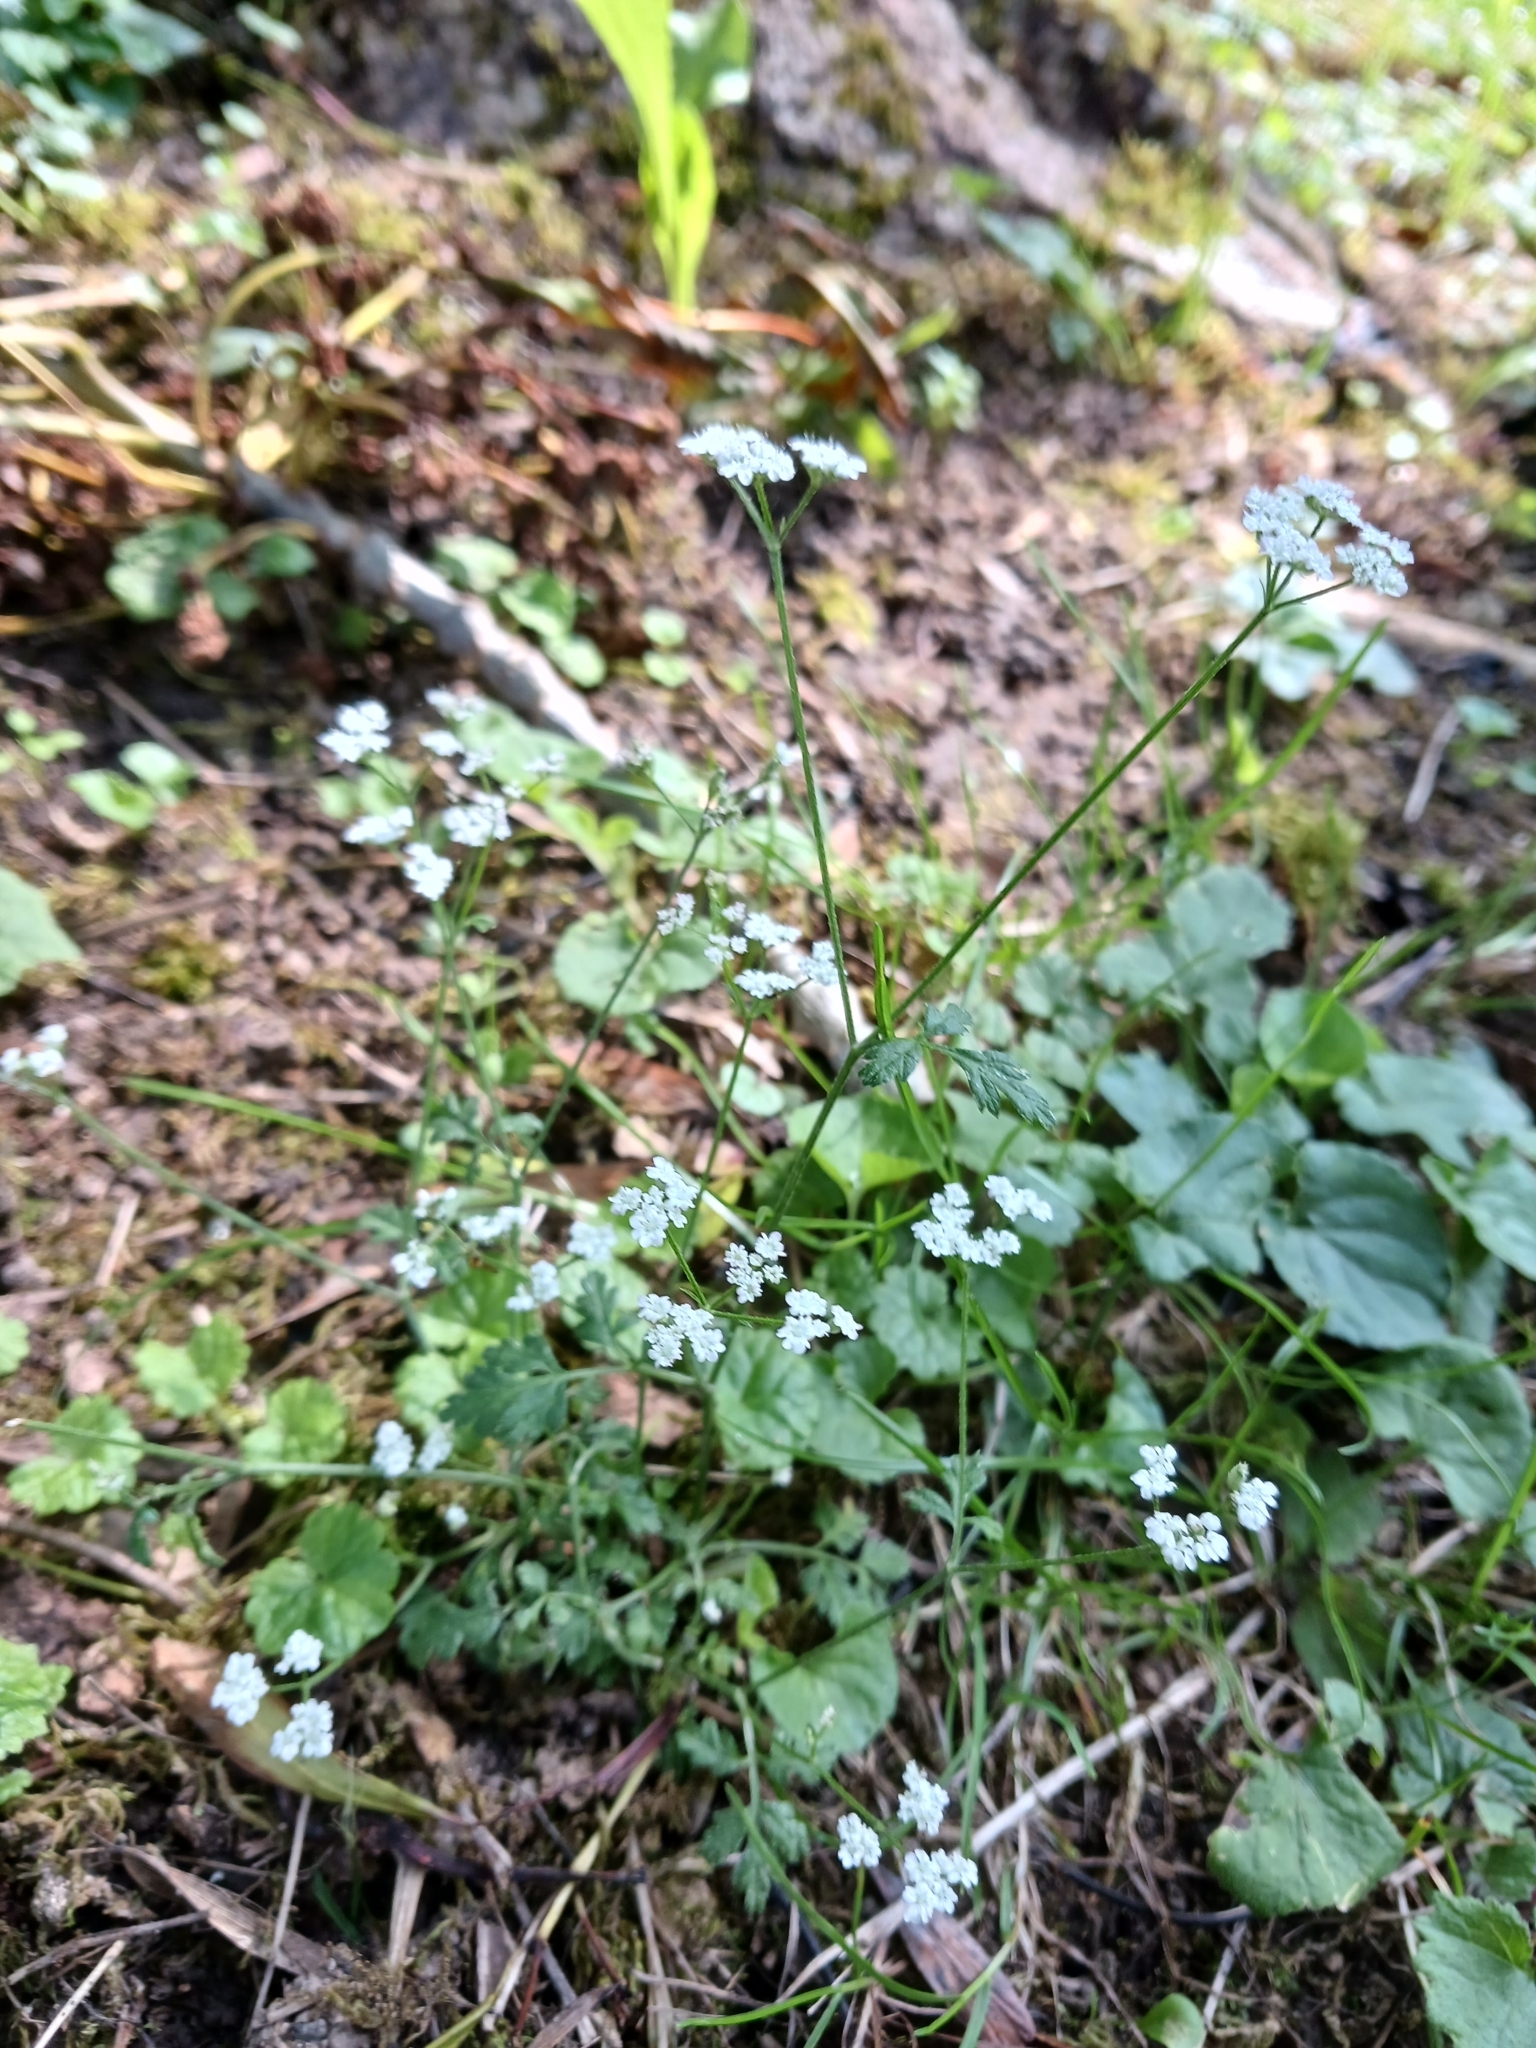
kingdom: Plantae
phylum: Tracheophyta
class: Magnoliopsida
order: Apiales
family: Apiaceae
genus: Torilis
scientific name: Torilis japonica
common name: Upright hedge-parsley
